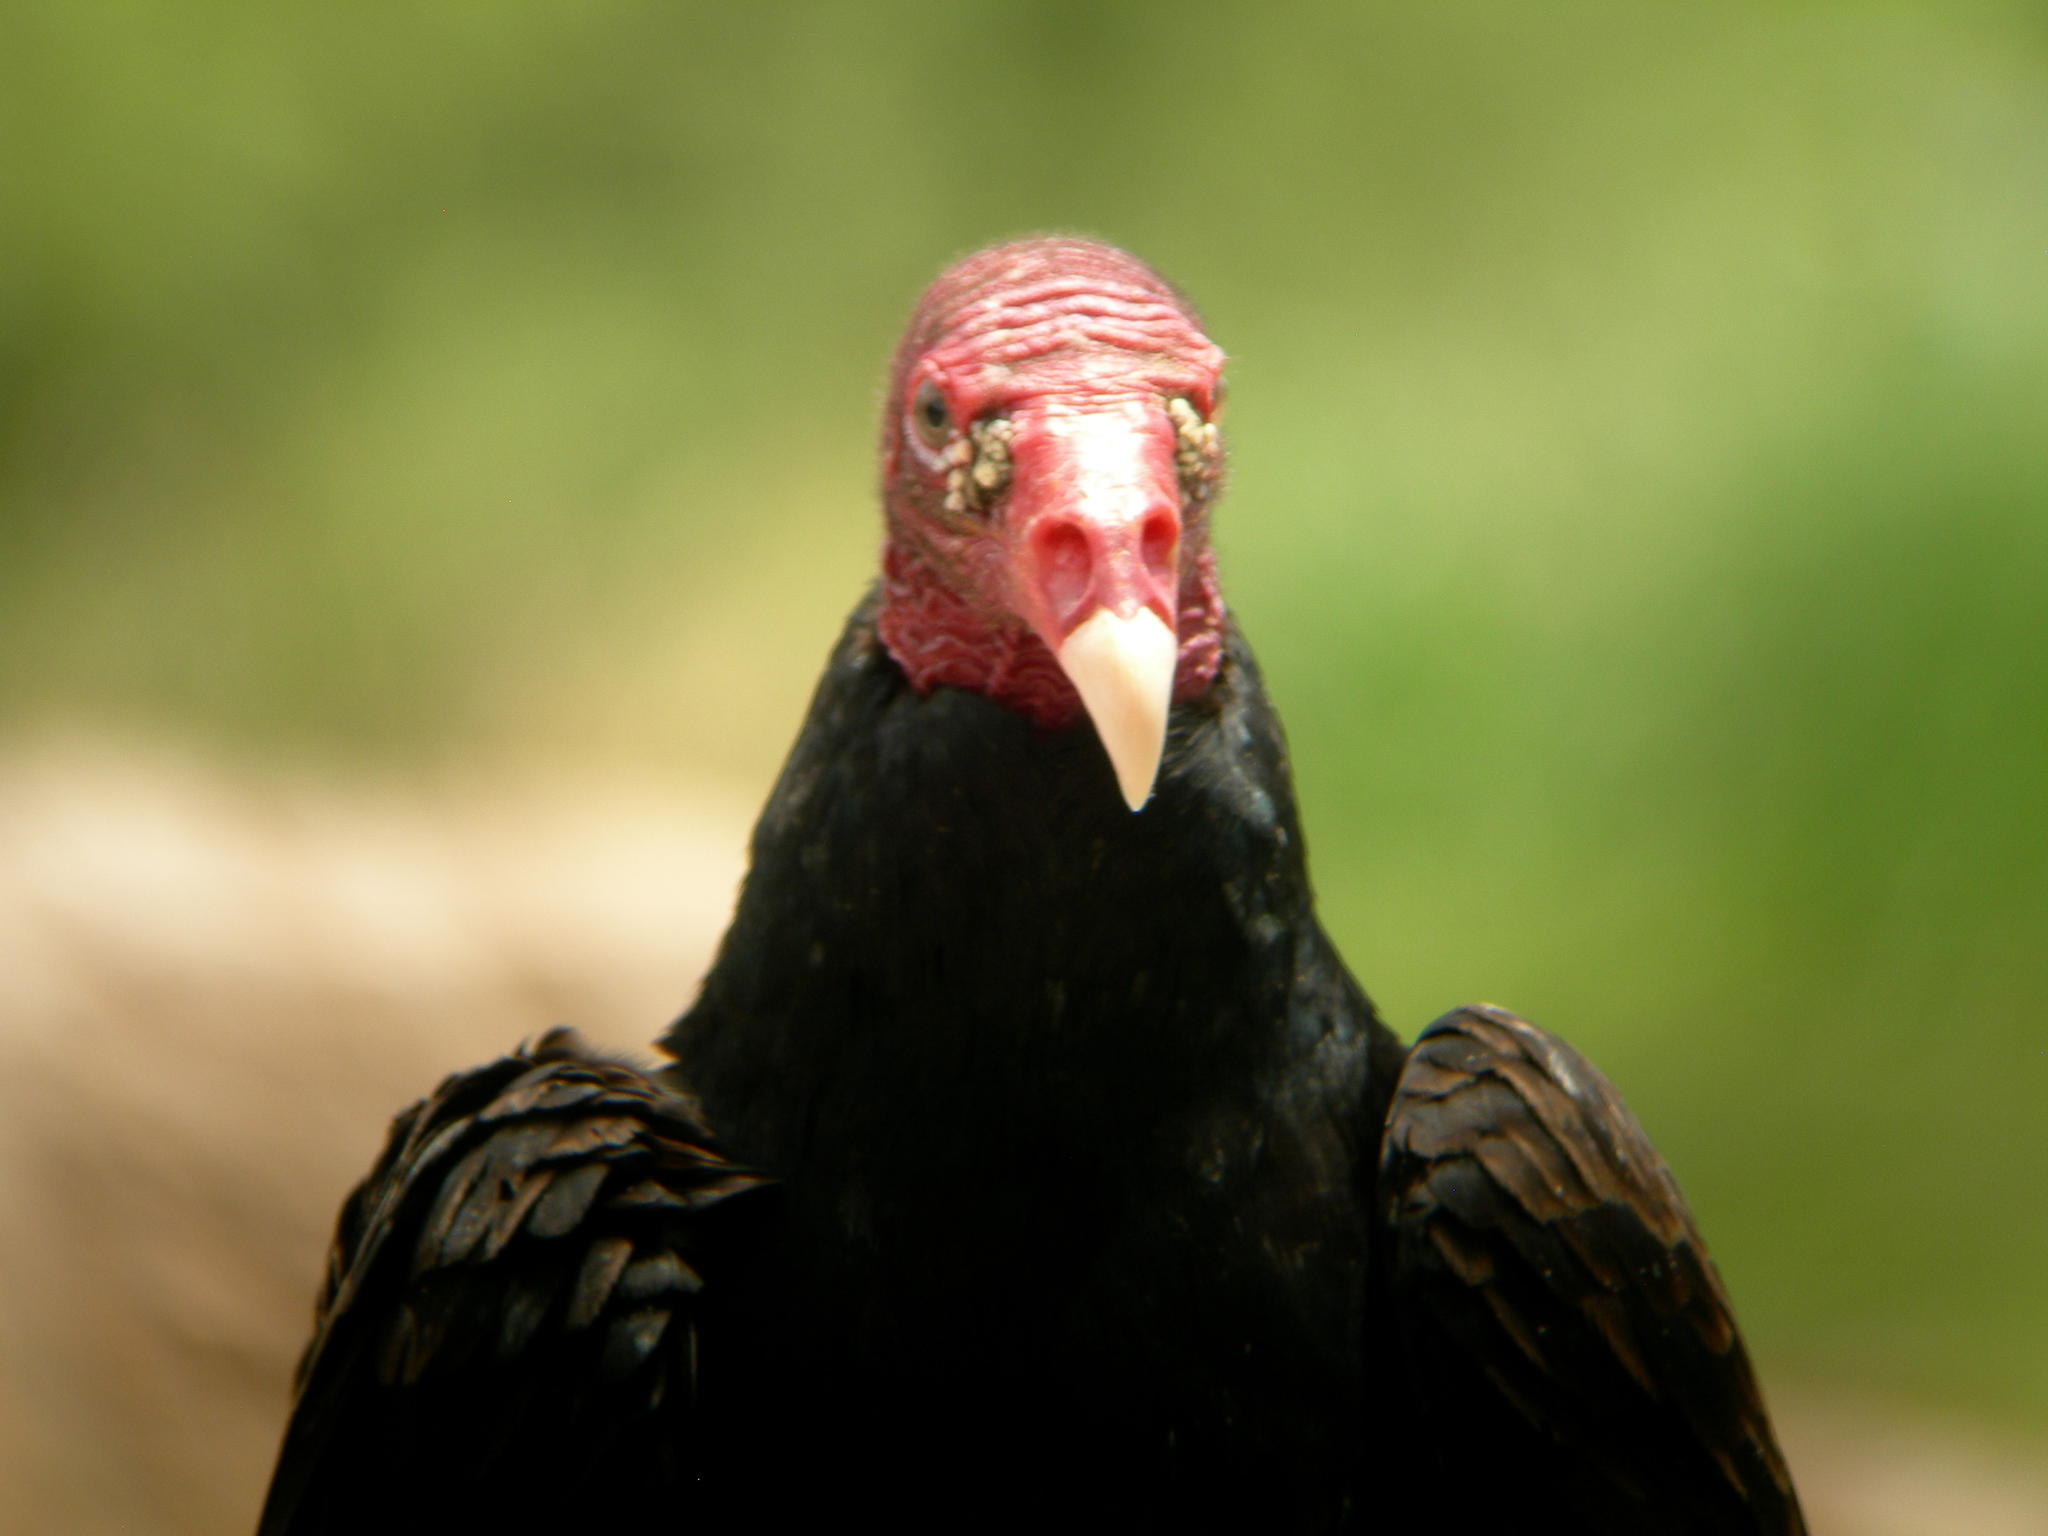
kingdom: Animalia
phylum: Chordata
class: Aves
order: Accipitriformes
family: Cathartidae
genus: Cathartes
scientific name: Cathartes aura
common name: Turkey vulture
